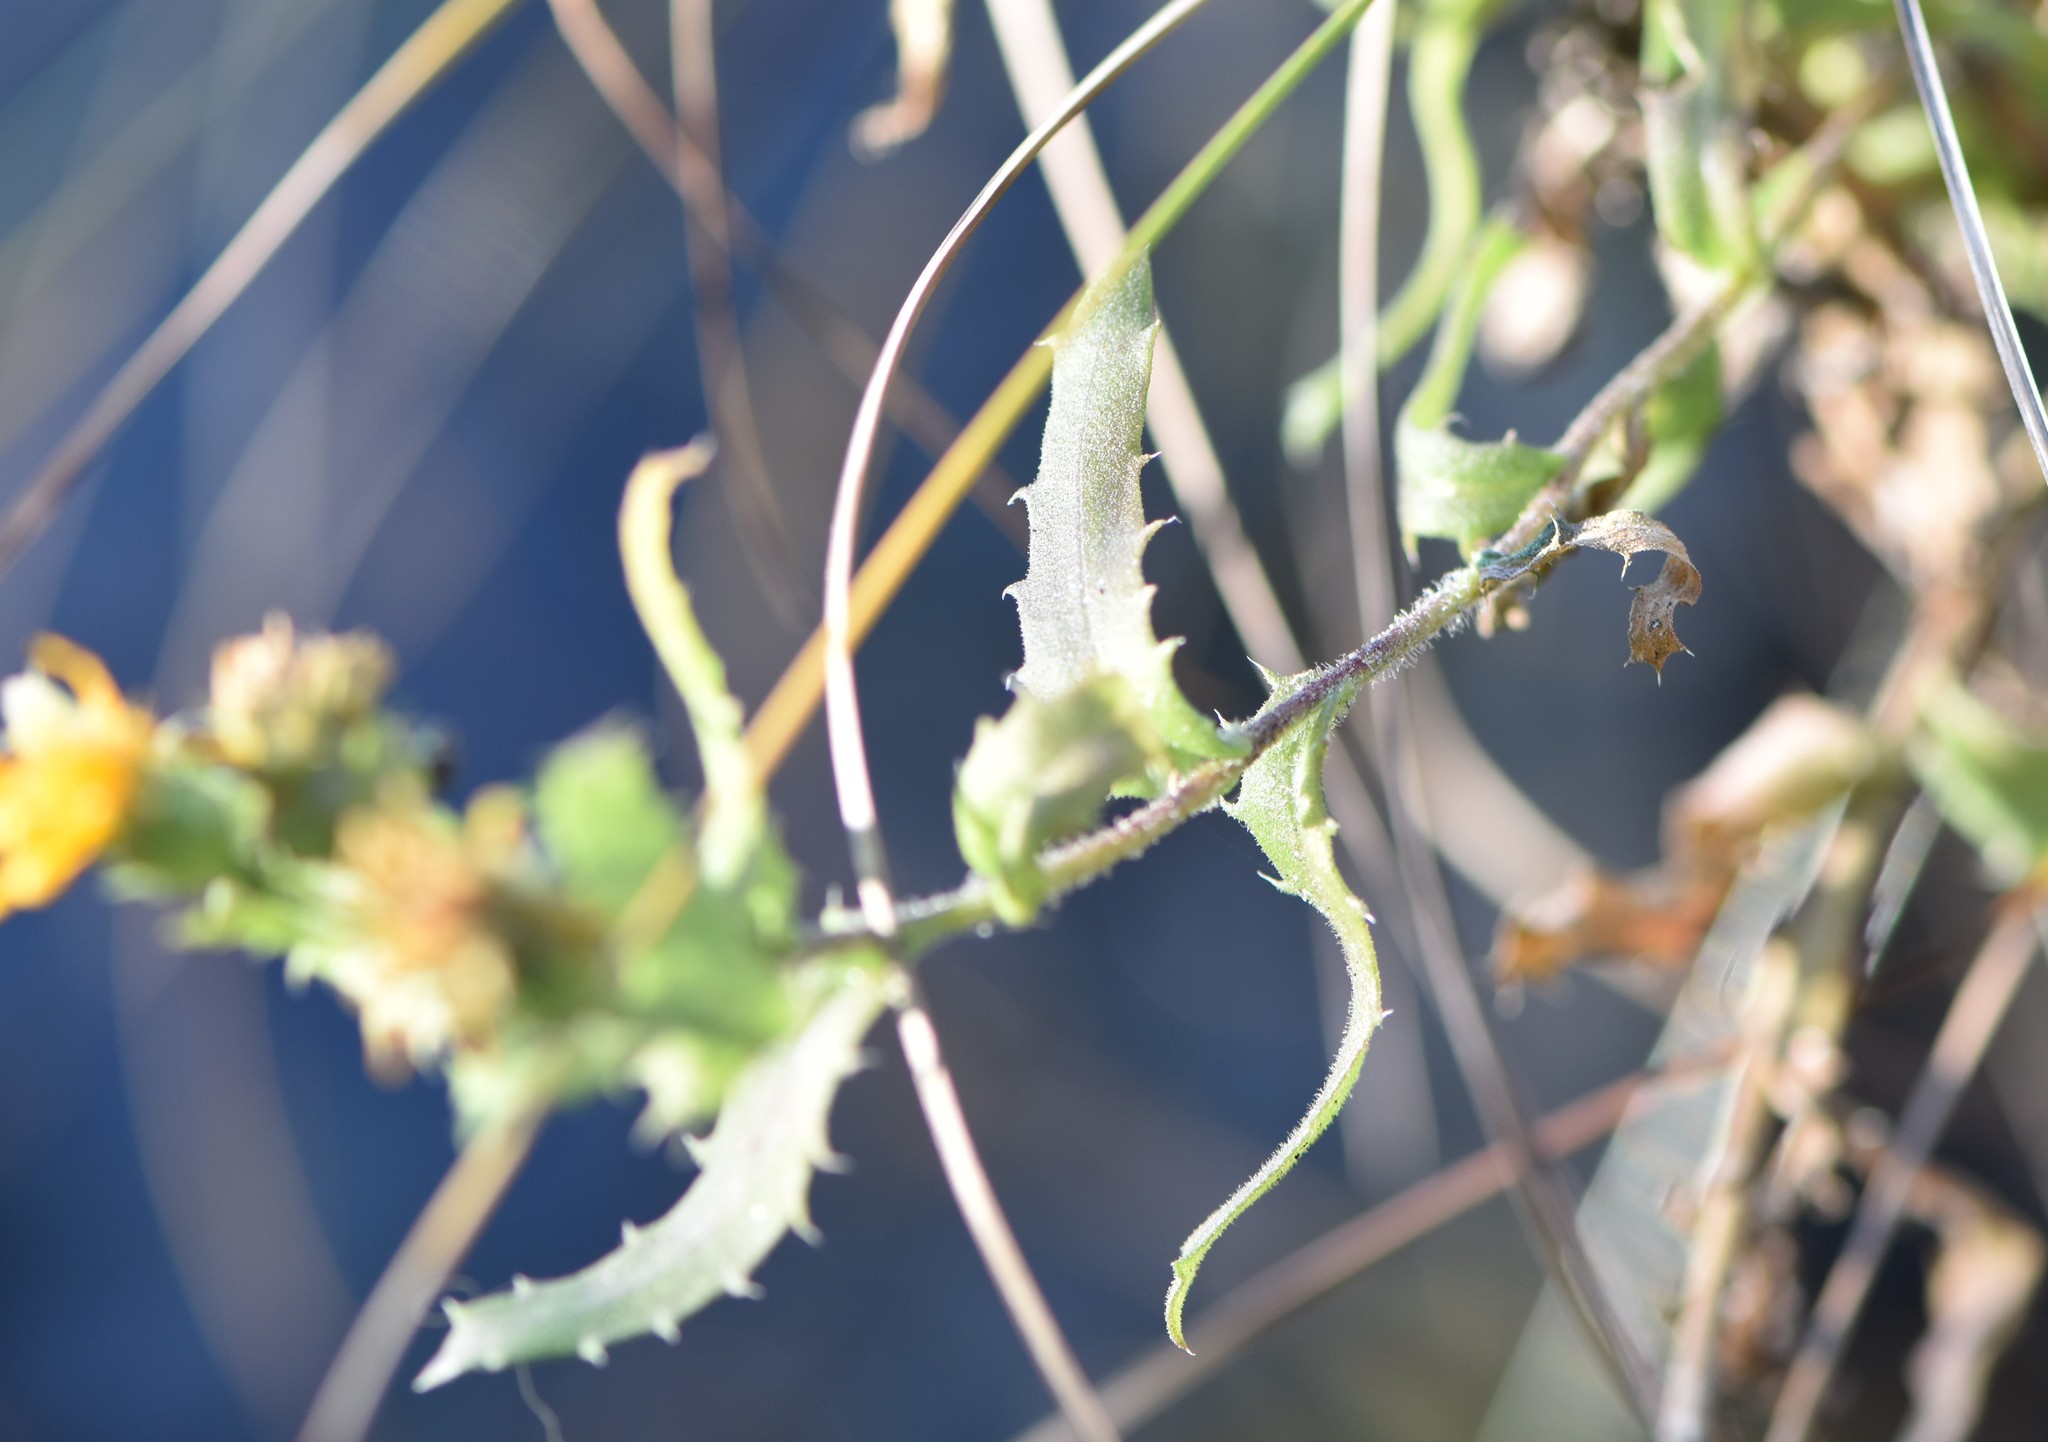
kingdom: Plantae
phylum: Tracheophyta
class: Magnoliopsida
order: Asterales
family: Asteraceae
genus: Rayjacksonia
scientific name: Rayjacksonia phyllocephala
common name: Gulf coast camphor daisy
